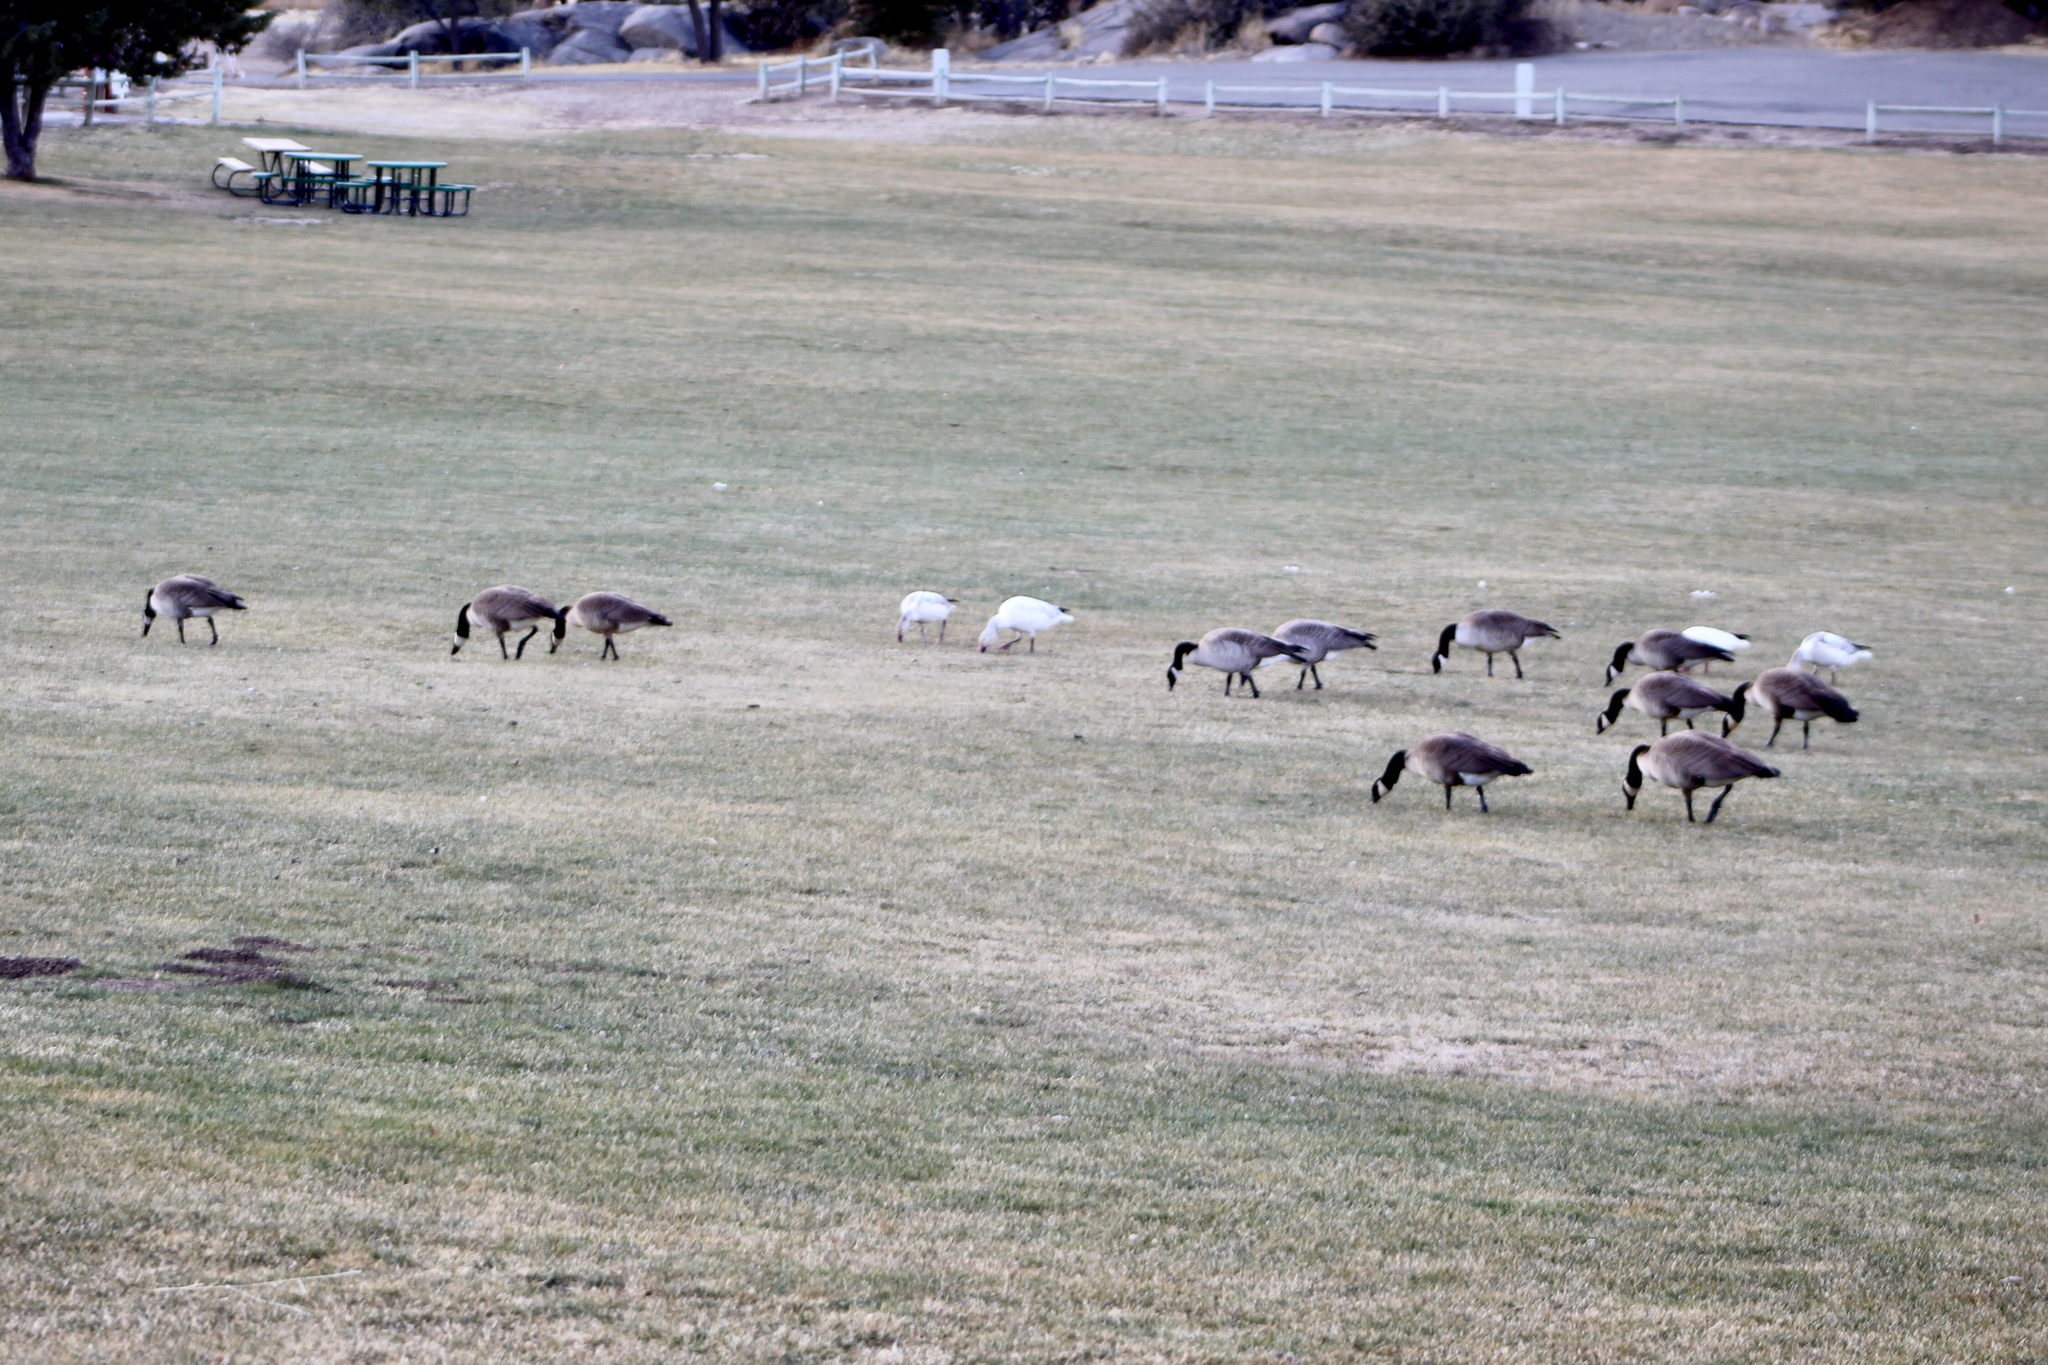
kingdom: Animalia
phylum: Chordata
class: Aves
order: Anseriformes
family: Anatidae
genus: Branta
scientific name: Branta canadensis
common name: Canada goose
